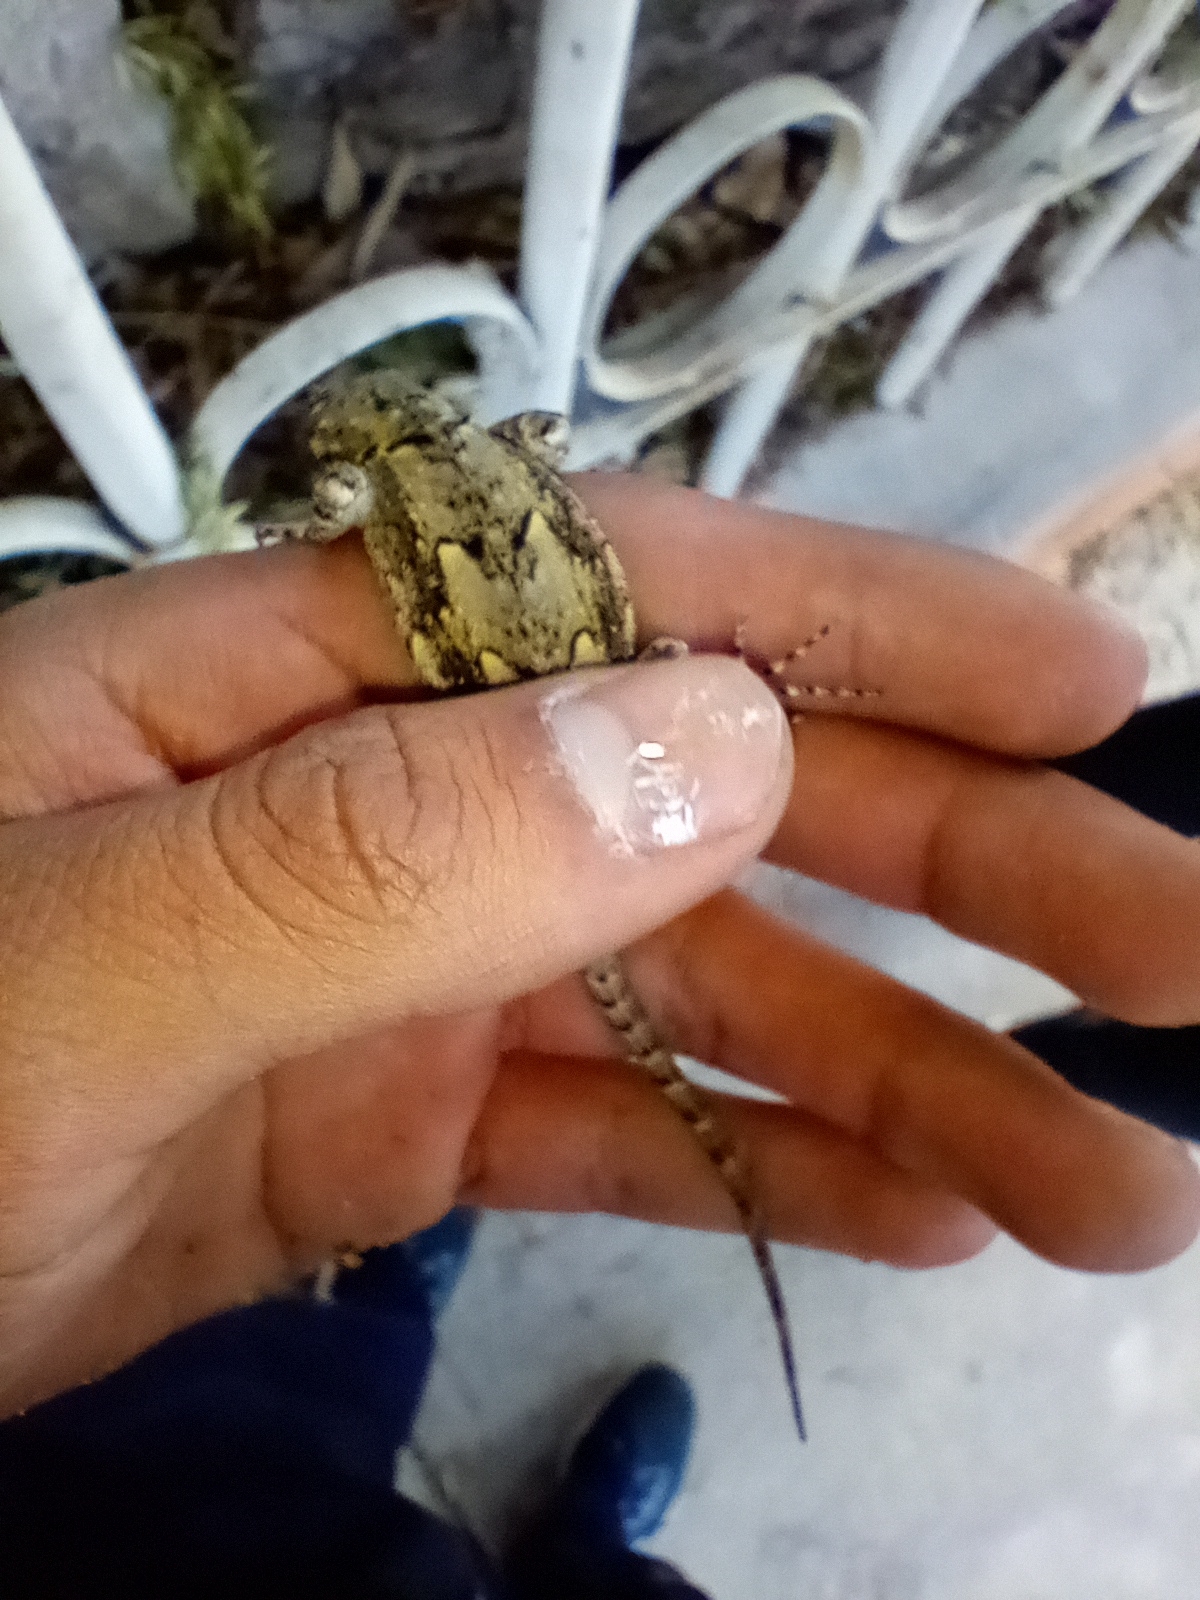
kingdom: Animalia
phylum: Chordata
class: Squamata
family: Phrynosomatidae
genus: Sceloporus
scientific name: Sceloporus grammicus
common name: Mesquite lizard
